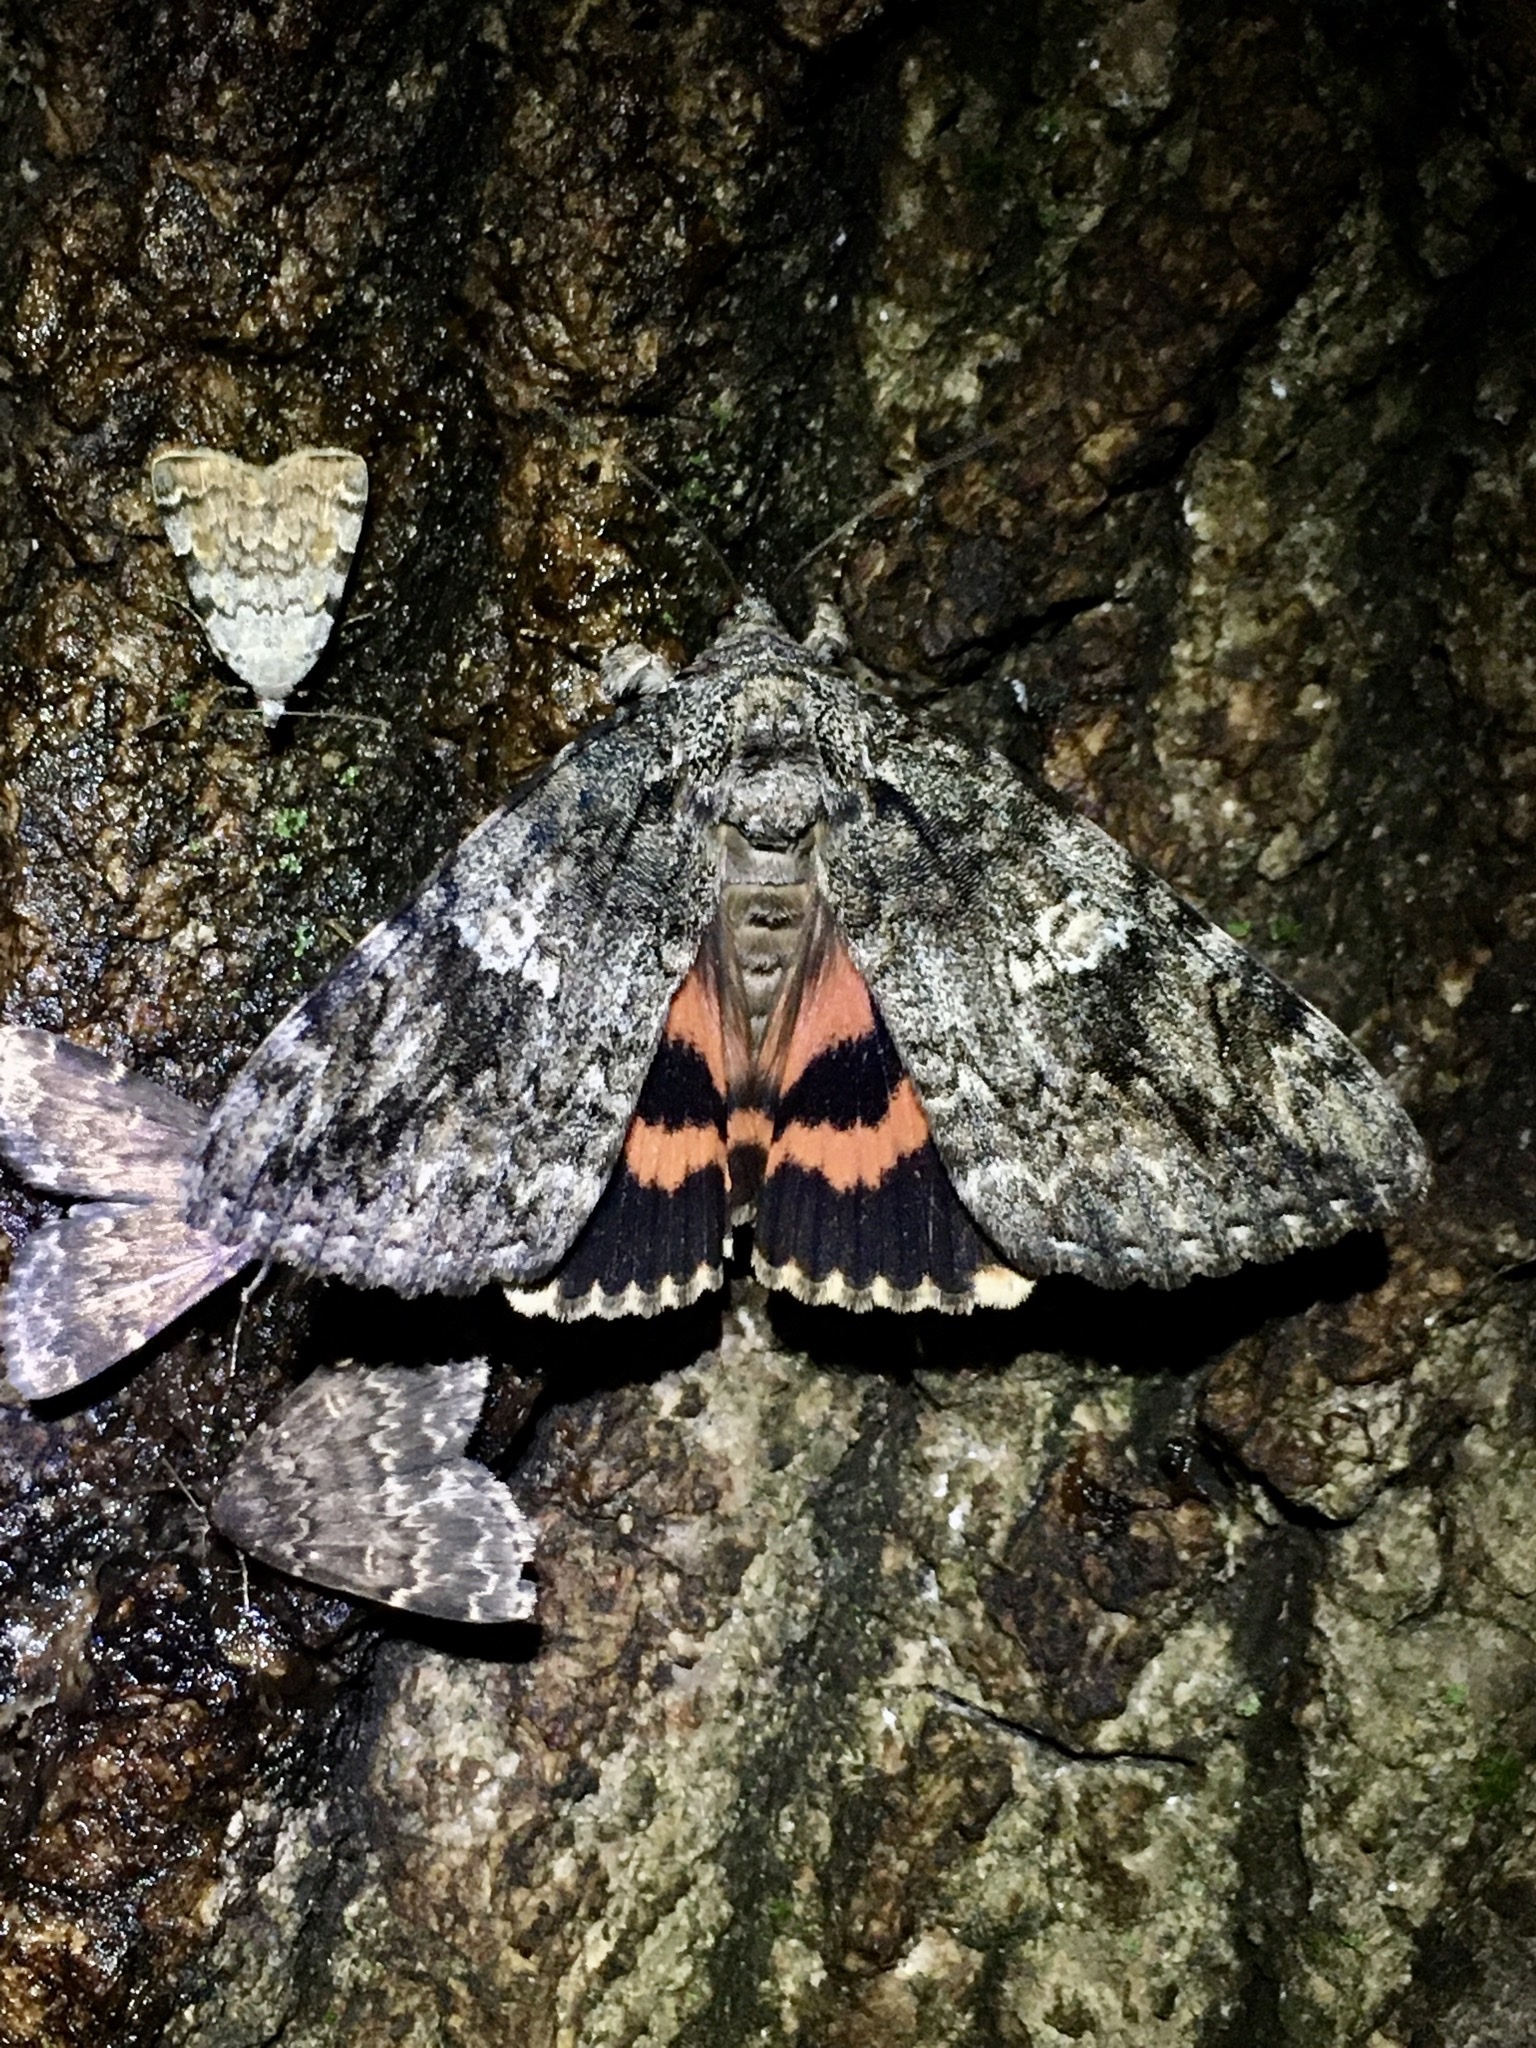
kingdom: Animalia
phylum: Arthropoda
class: Insecta
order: Lepidoptera
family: Erebidae
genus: Catocala
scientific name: Catocala ilia
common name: Ilia underwing
